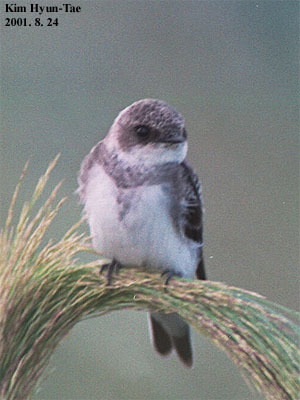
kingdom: Animalia
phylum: Chordata
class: Aves
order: Passeriformes
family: Hirundinidae
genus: Riparia
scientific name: Riparia riparia
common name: Sand martin
